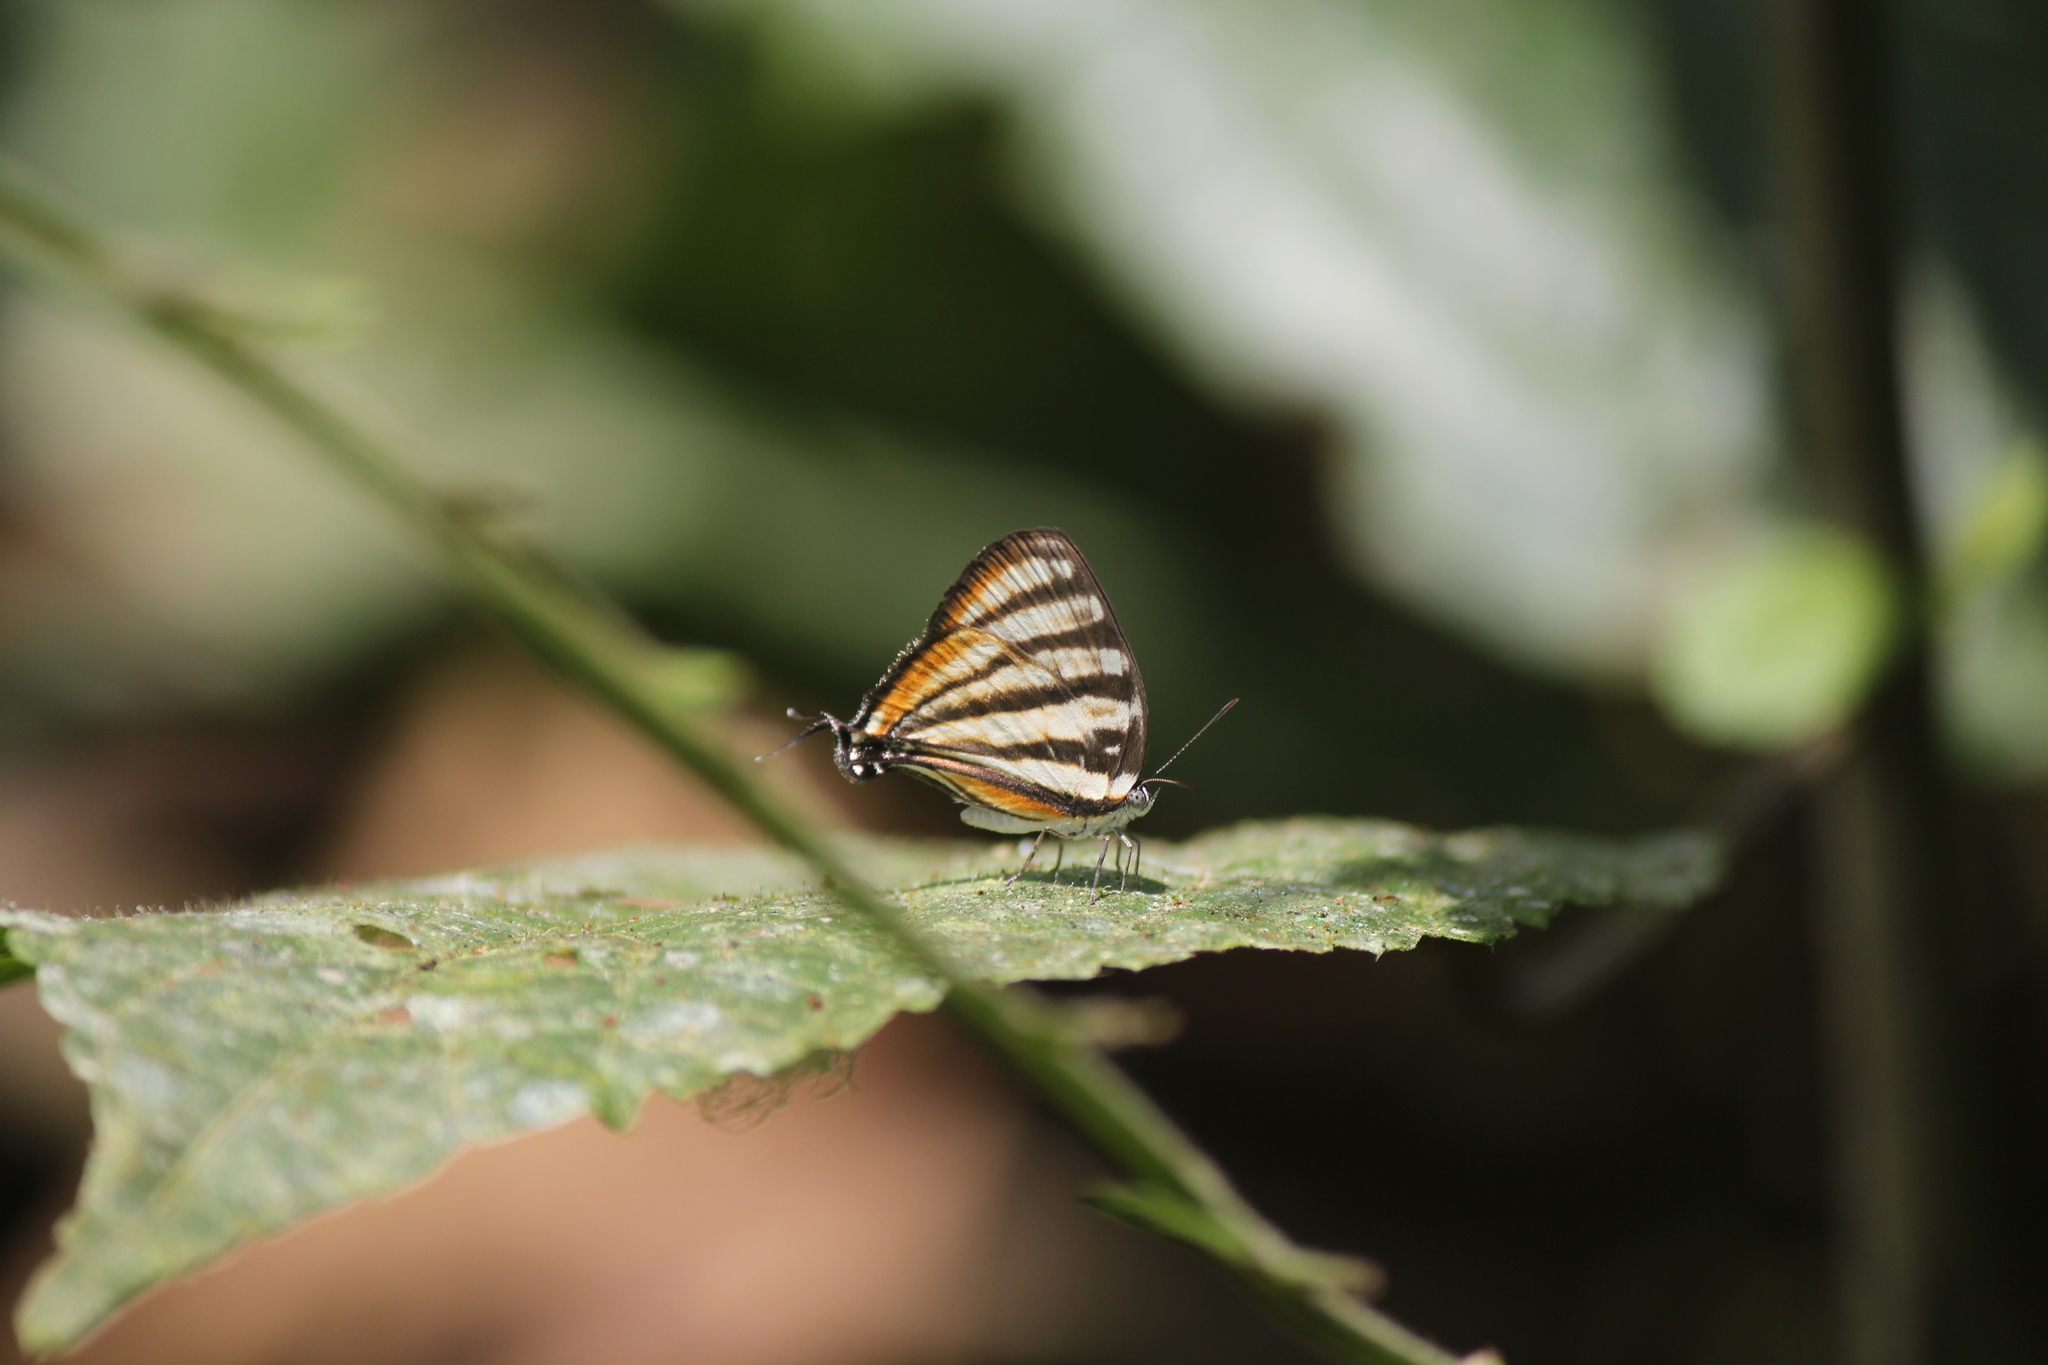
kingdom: Animalia
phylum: Arthropoda
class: Insecta
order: Lepidoptera
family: Lycaenidae
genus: Arawacus
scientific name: Arawacus lincoides
